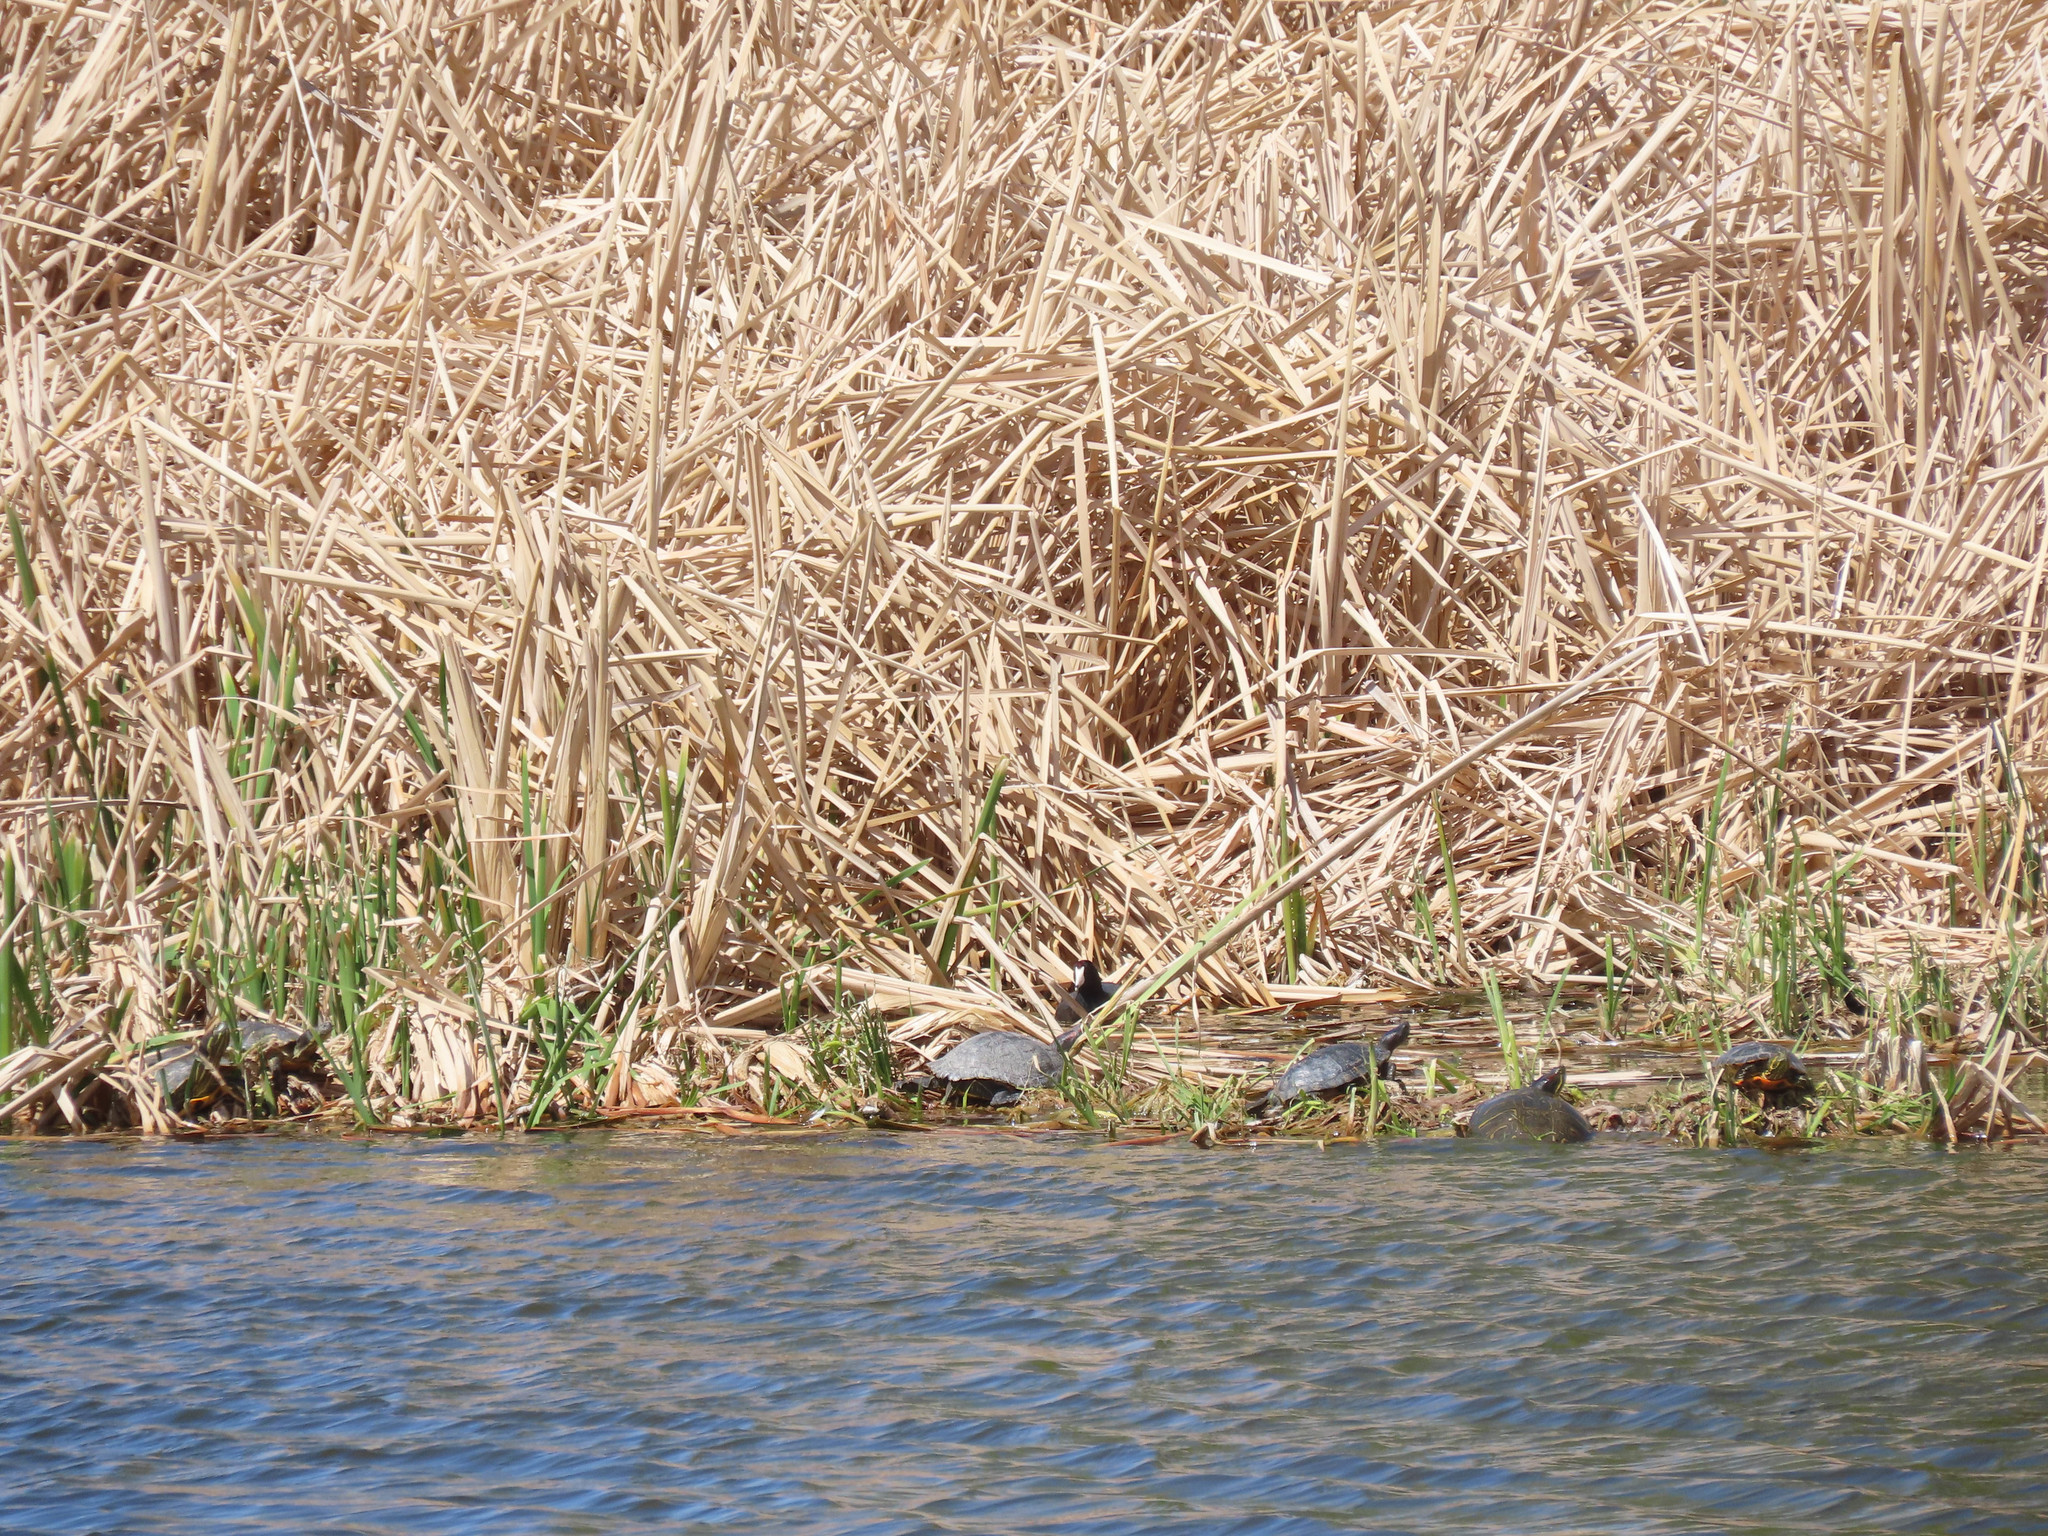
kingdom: Animalia
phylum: Chordata
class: Testudines
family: Emydidae
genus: Trachemys
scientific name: Trachemys scripta
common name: Slider
